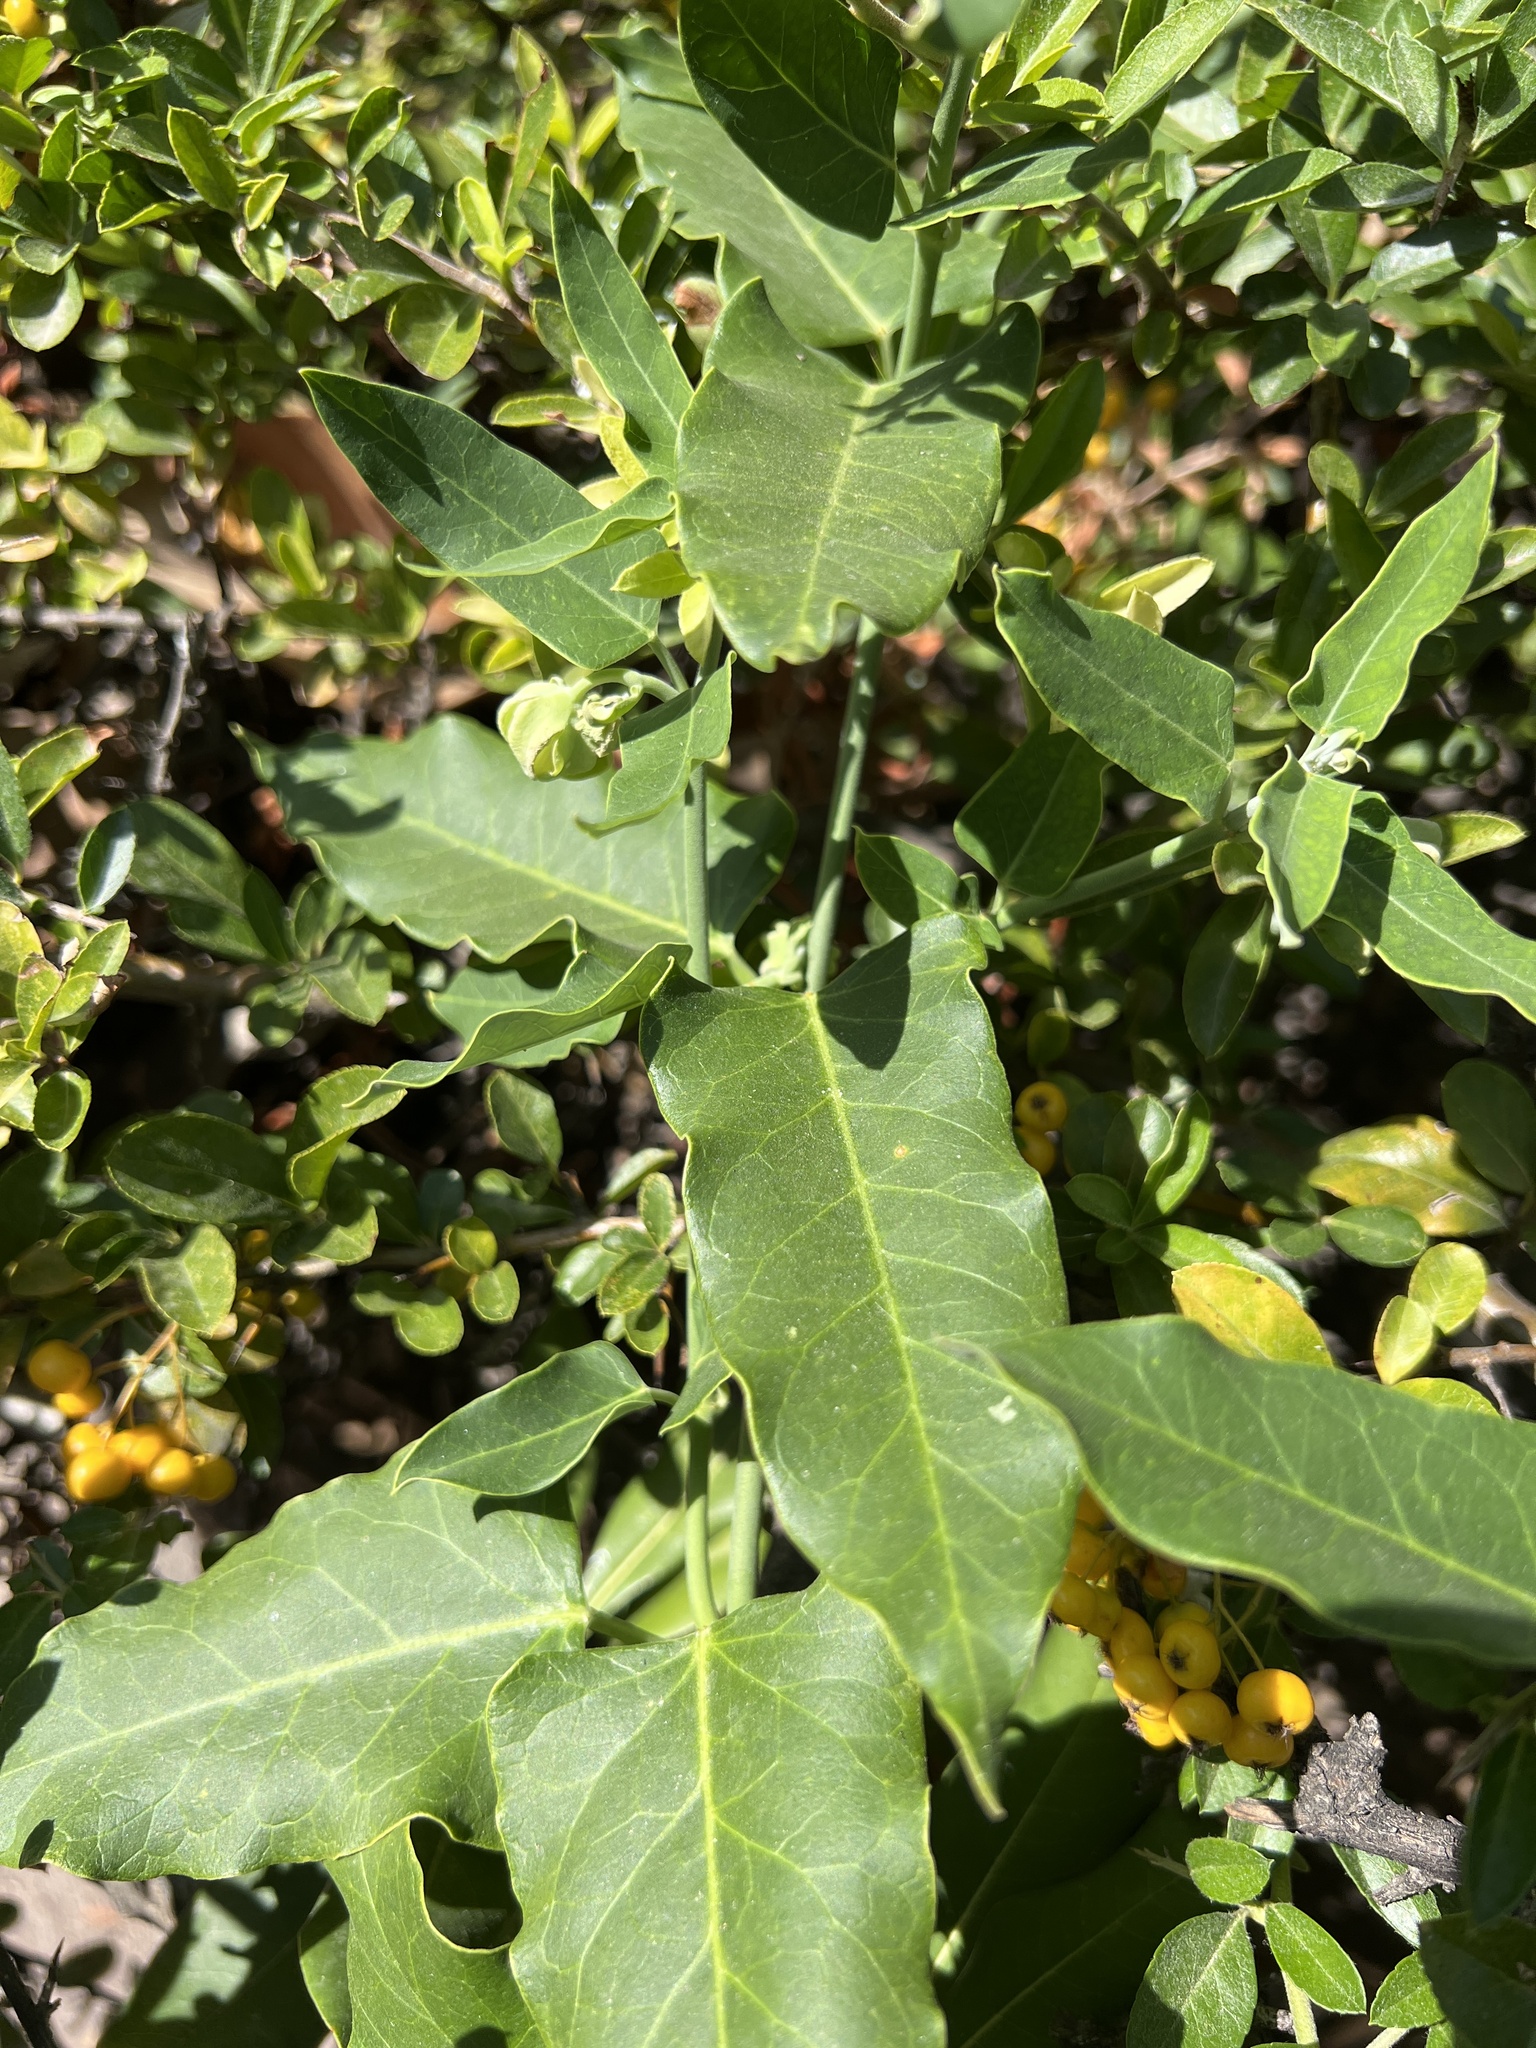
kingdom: Plantae
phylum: Tracheophyta
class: Magnoliopsida
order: Gentianales
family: Apocynaceae
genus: Araujia
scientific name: Araujia sericifera
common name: White bladderflower
